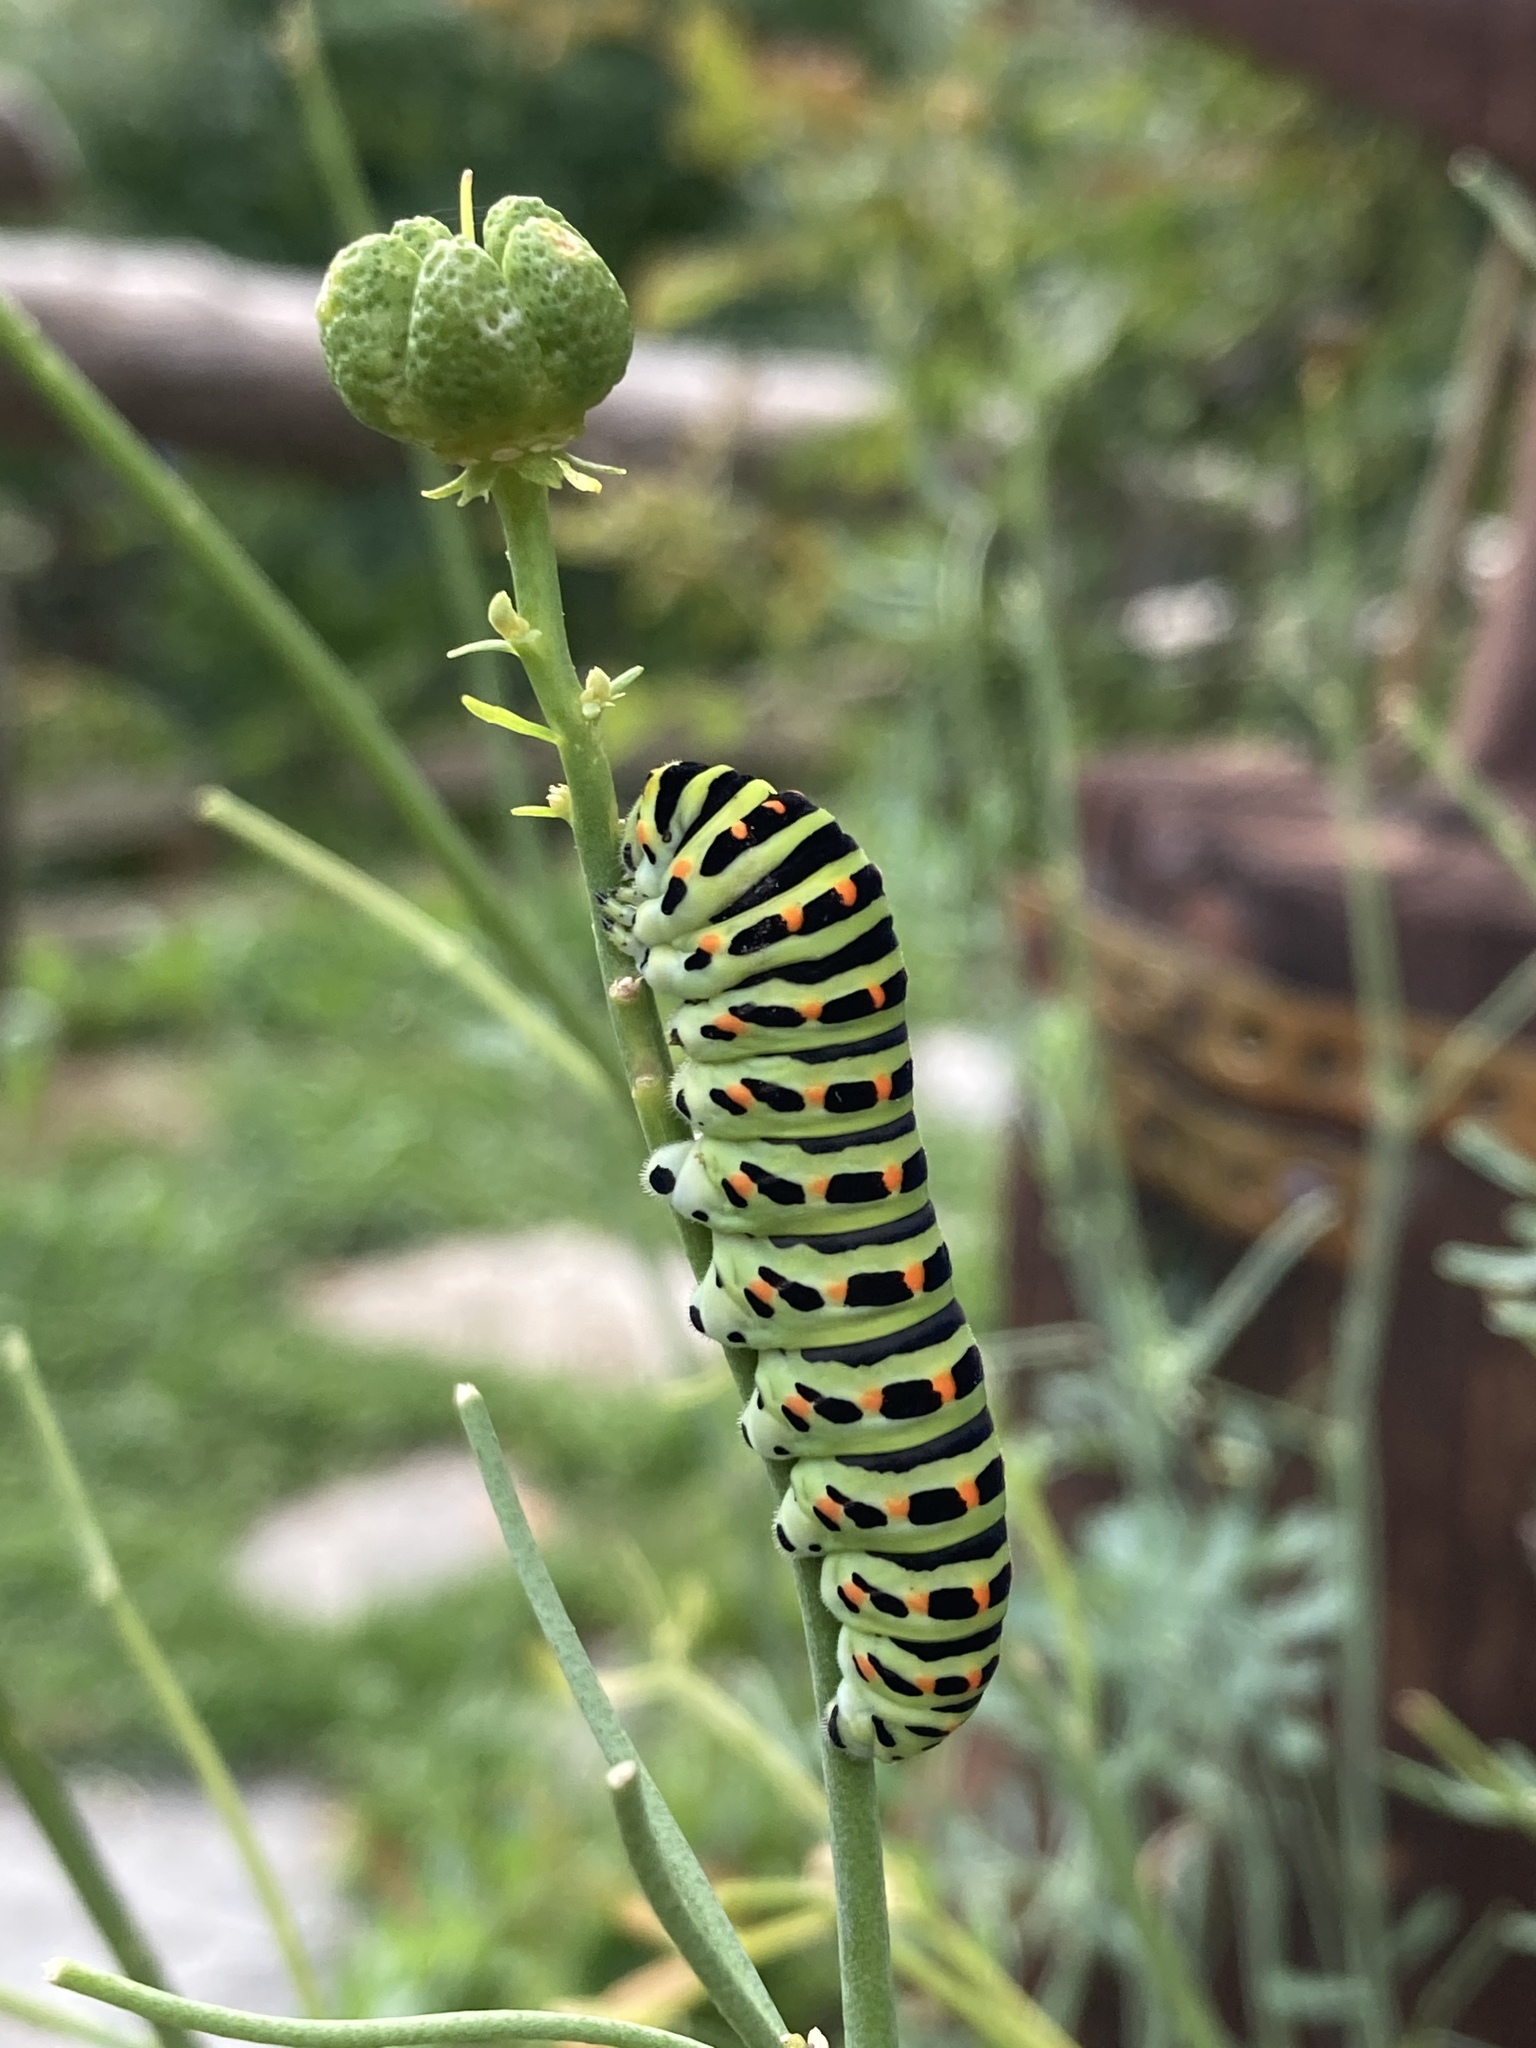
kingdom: Animalia
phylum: Arthropoda
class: Insecta
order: Lepidoptera
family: Papilionidae
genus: Papilio
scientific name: Papilio machaon
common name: Swallowtail
